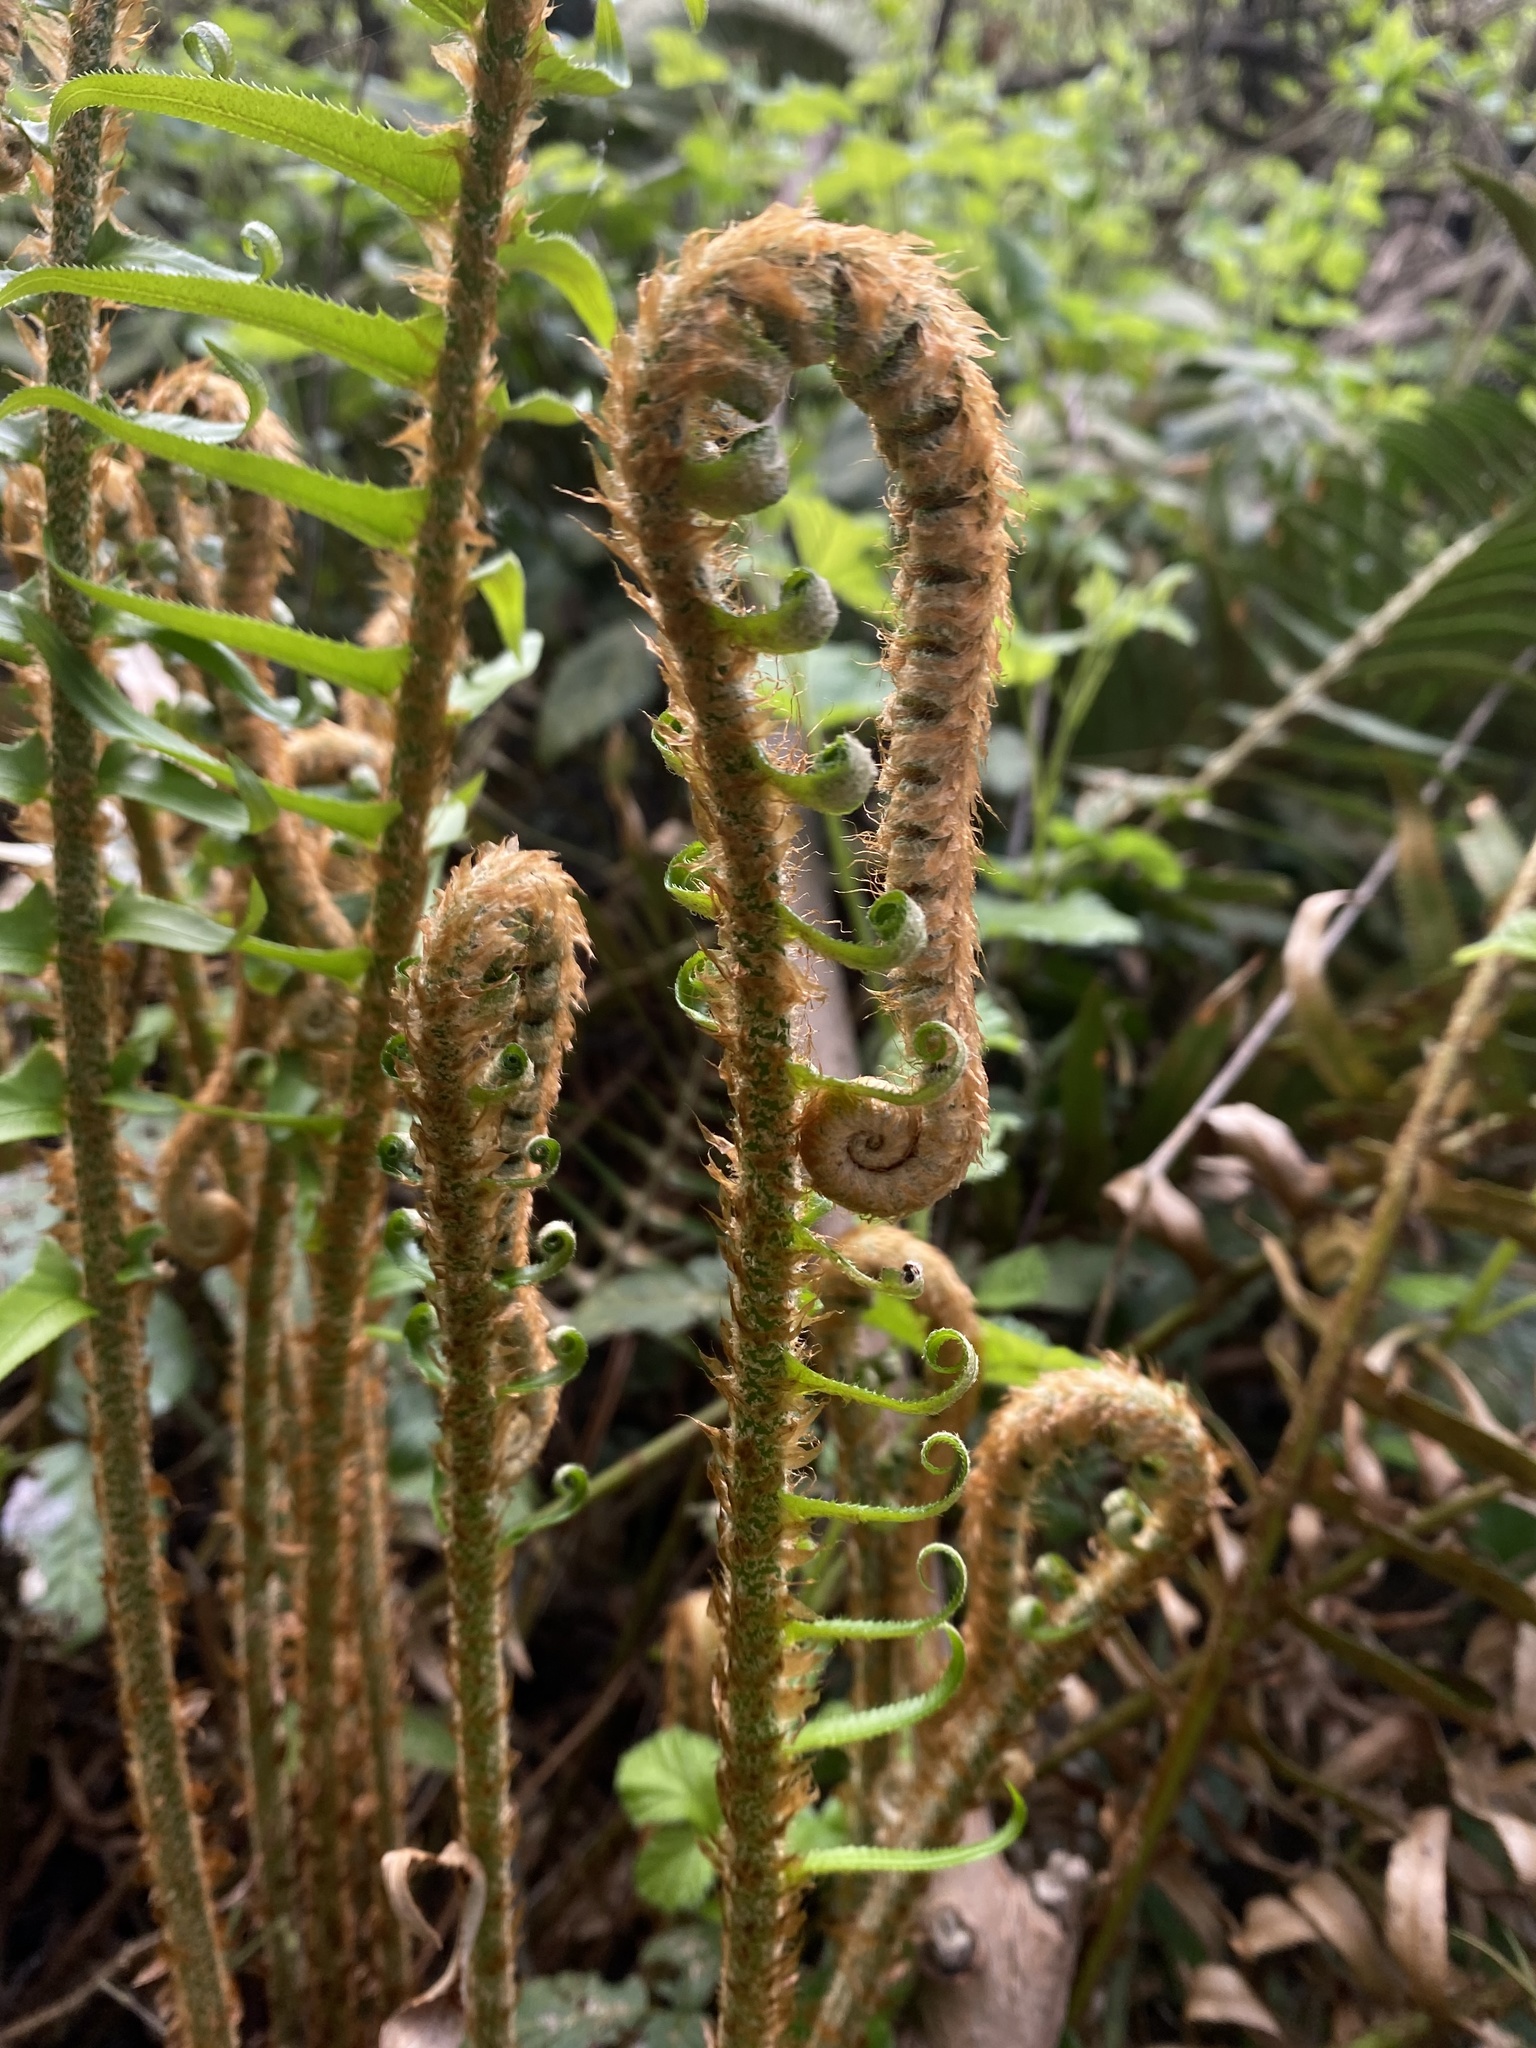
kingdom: Plantae
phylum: Tracheophyta
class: Polypodiopsida
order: Polypodiales
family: Dryopteridaceae
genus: Polystichum
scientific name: Polystichum munitum
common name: Western sword-fern
